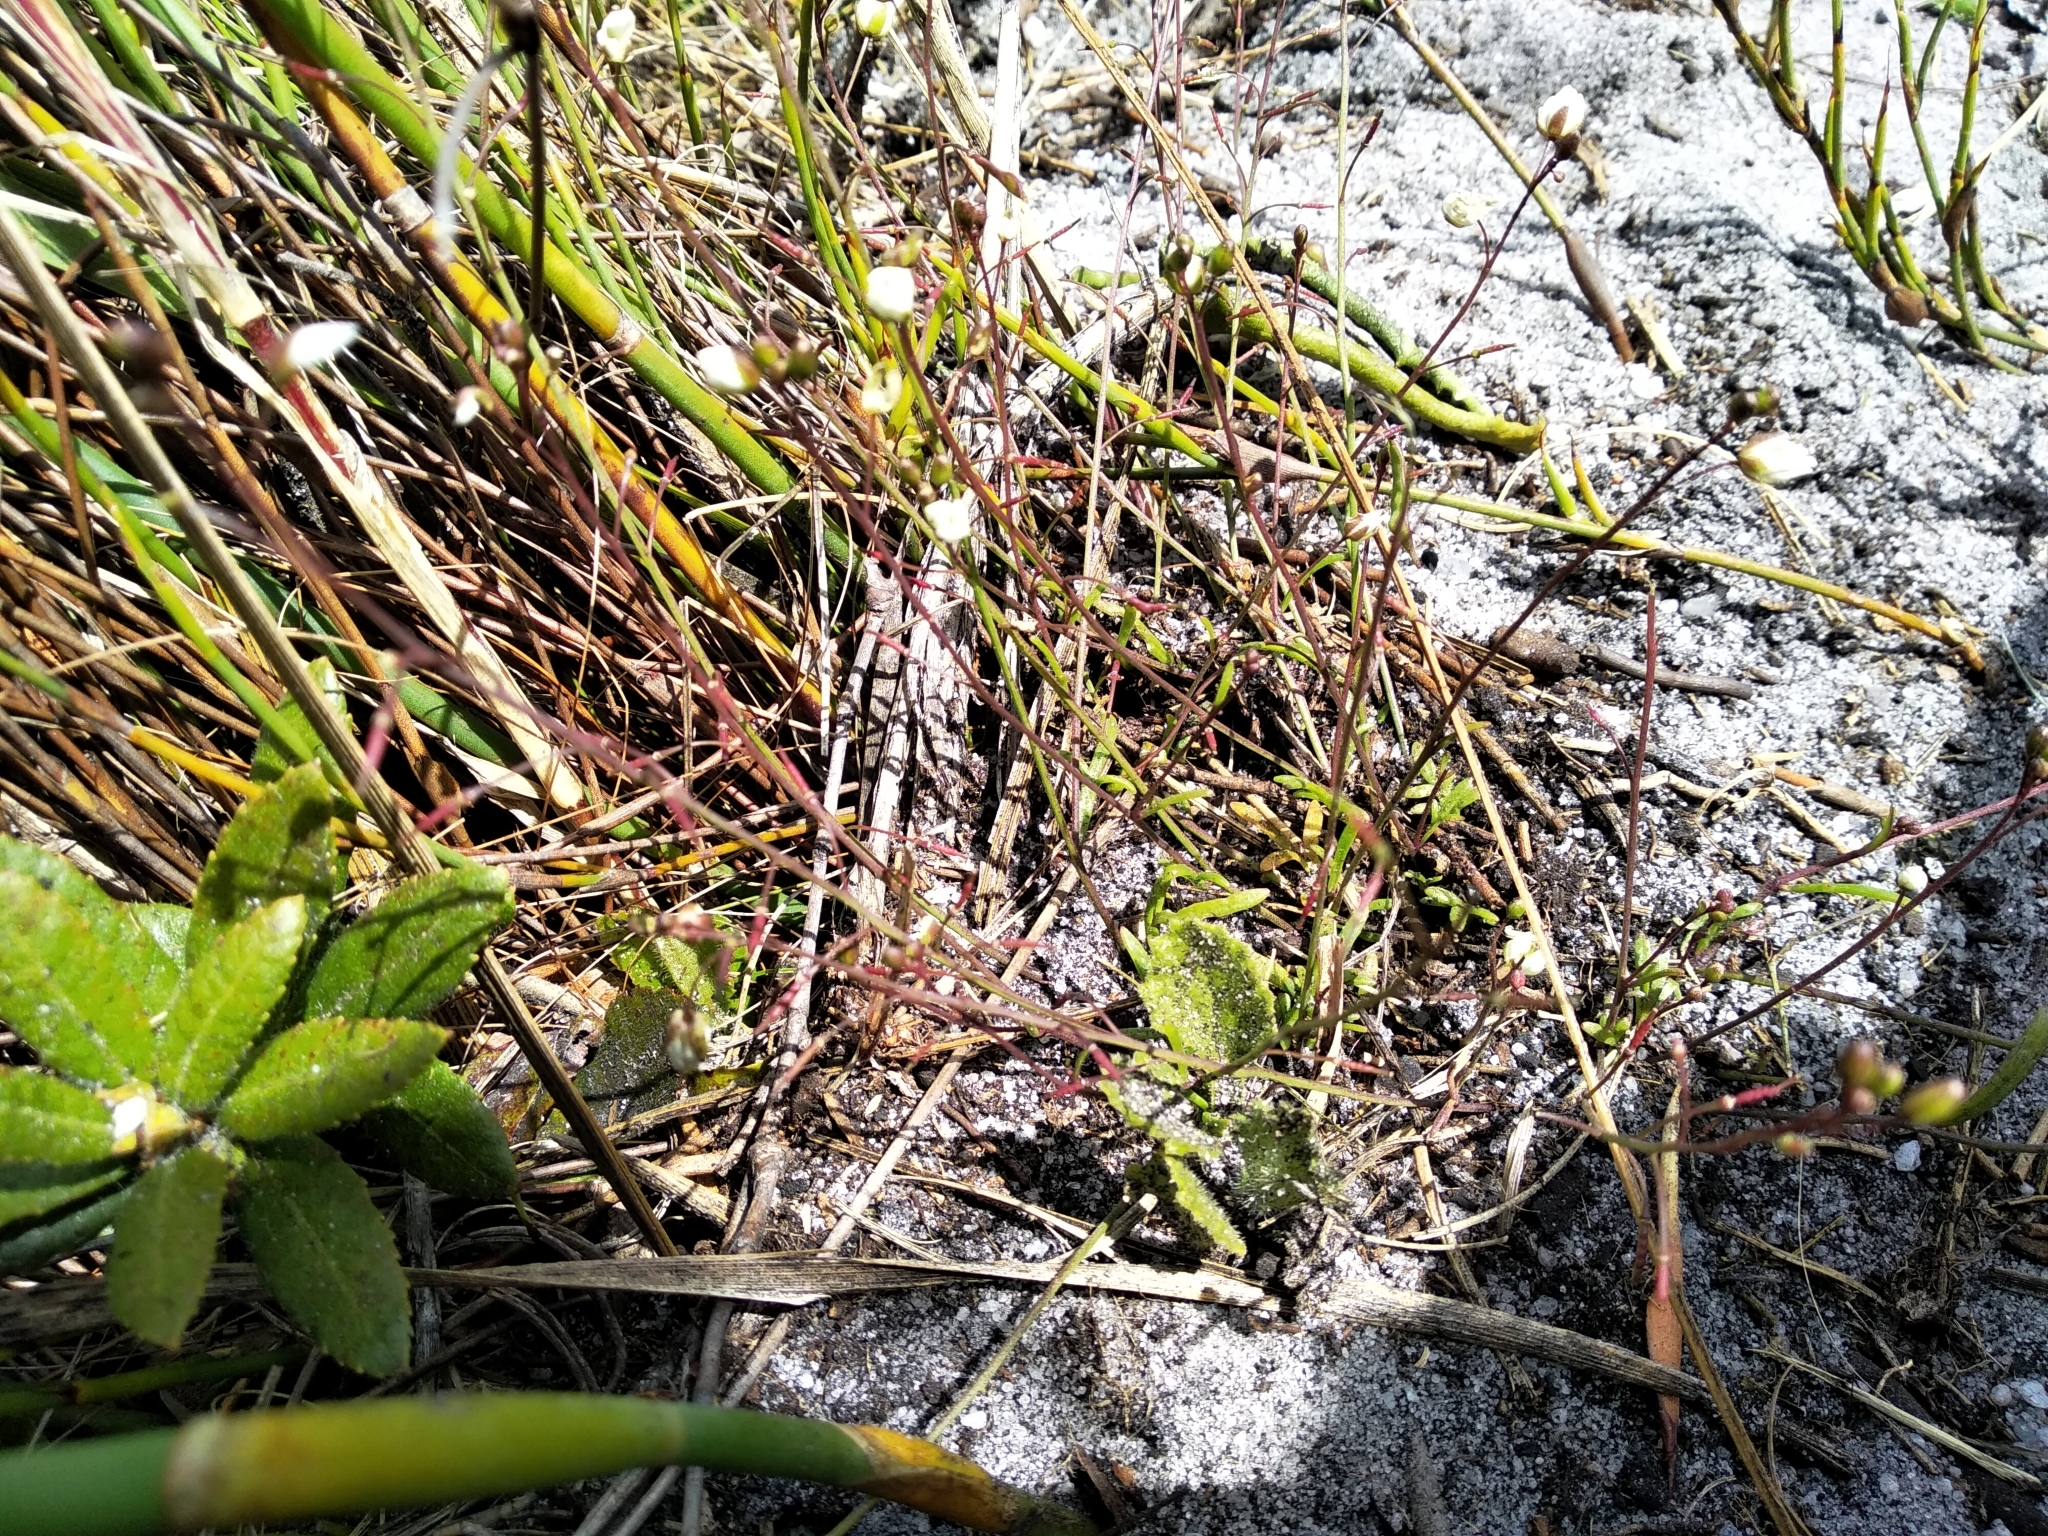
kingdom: Plantae
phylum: Tracheophyta
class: Magnoliopsida
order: Brassicales
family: Brassicaceae
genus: Heliophila
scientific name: Heliophila meyeri
